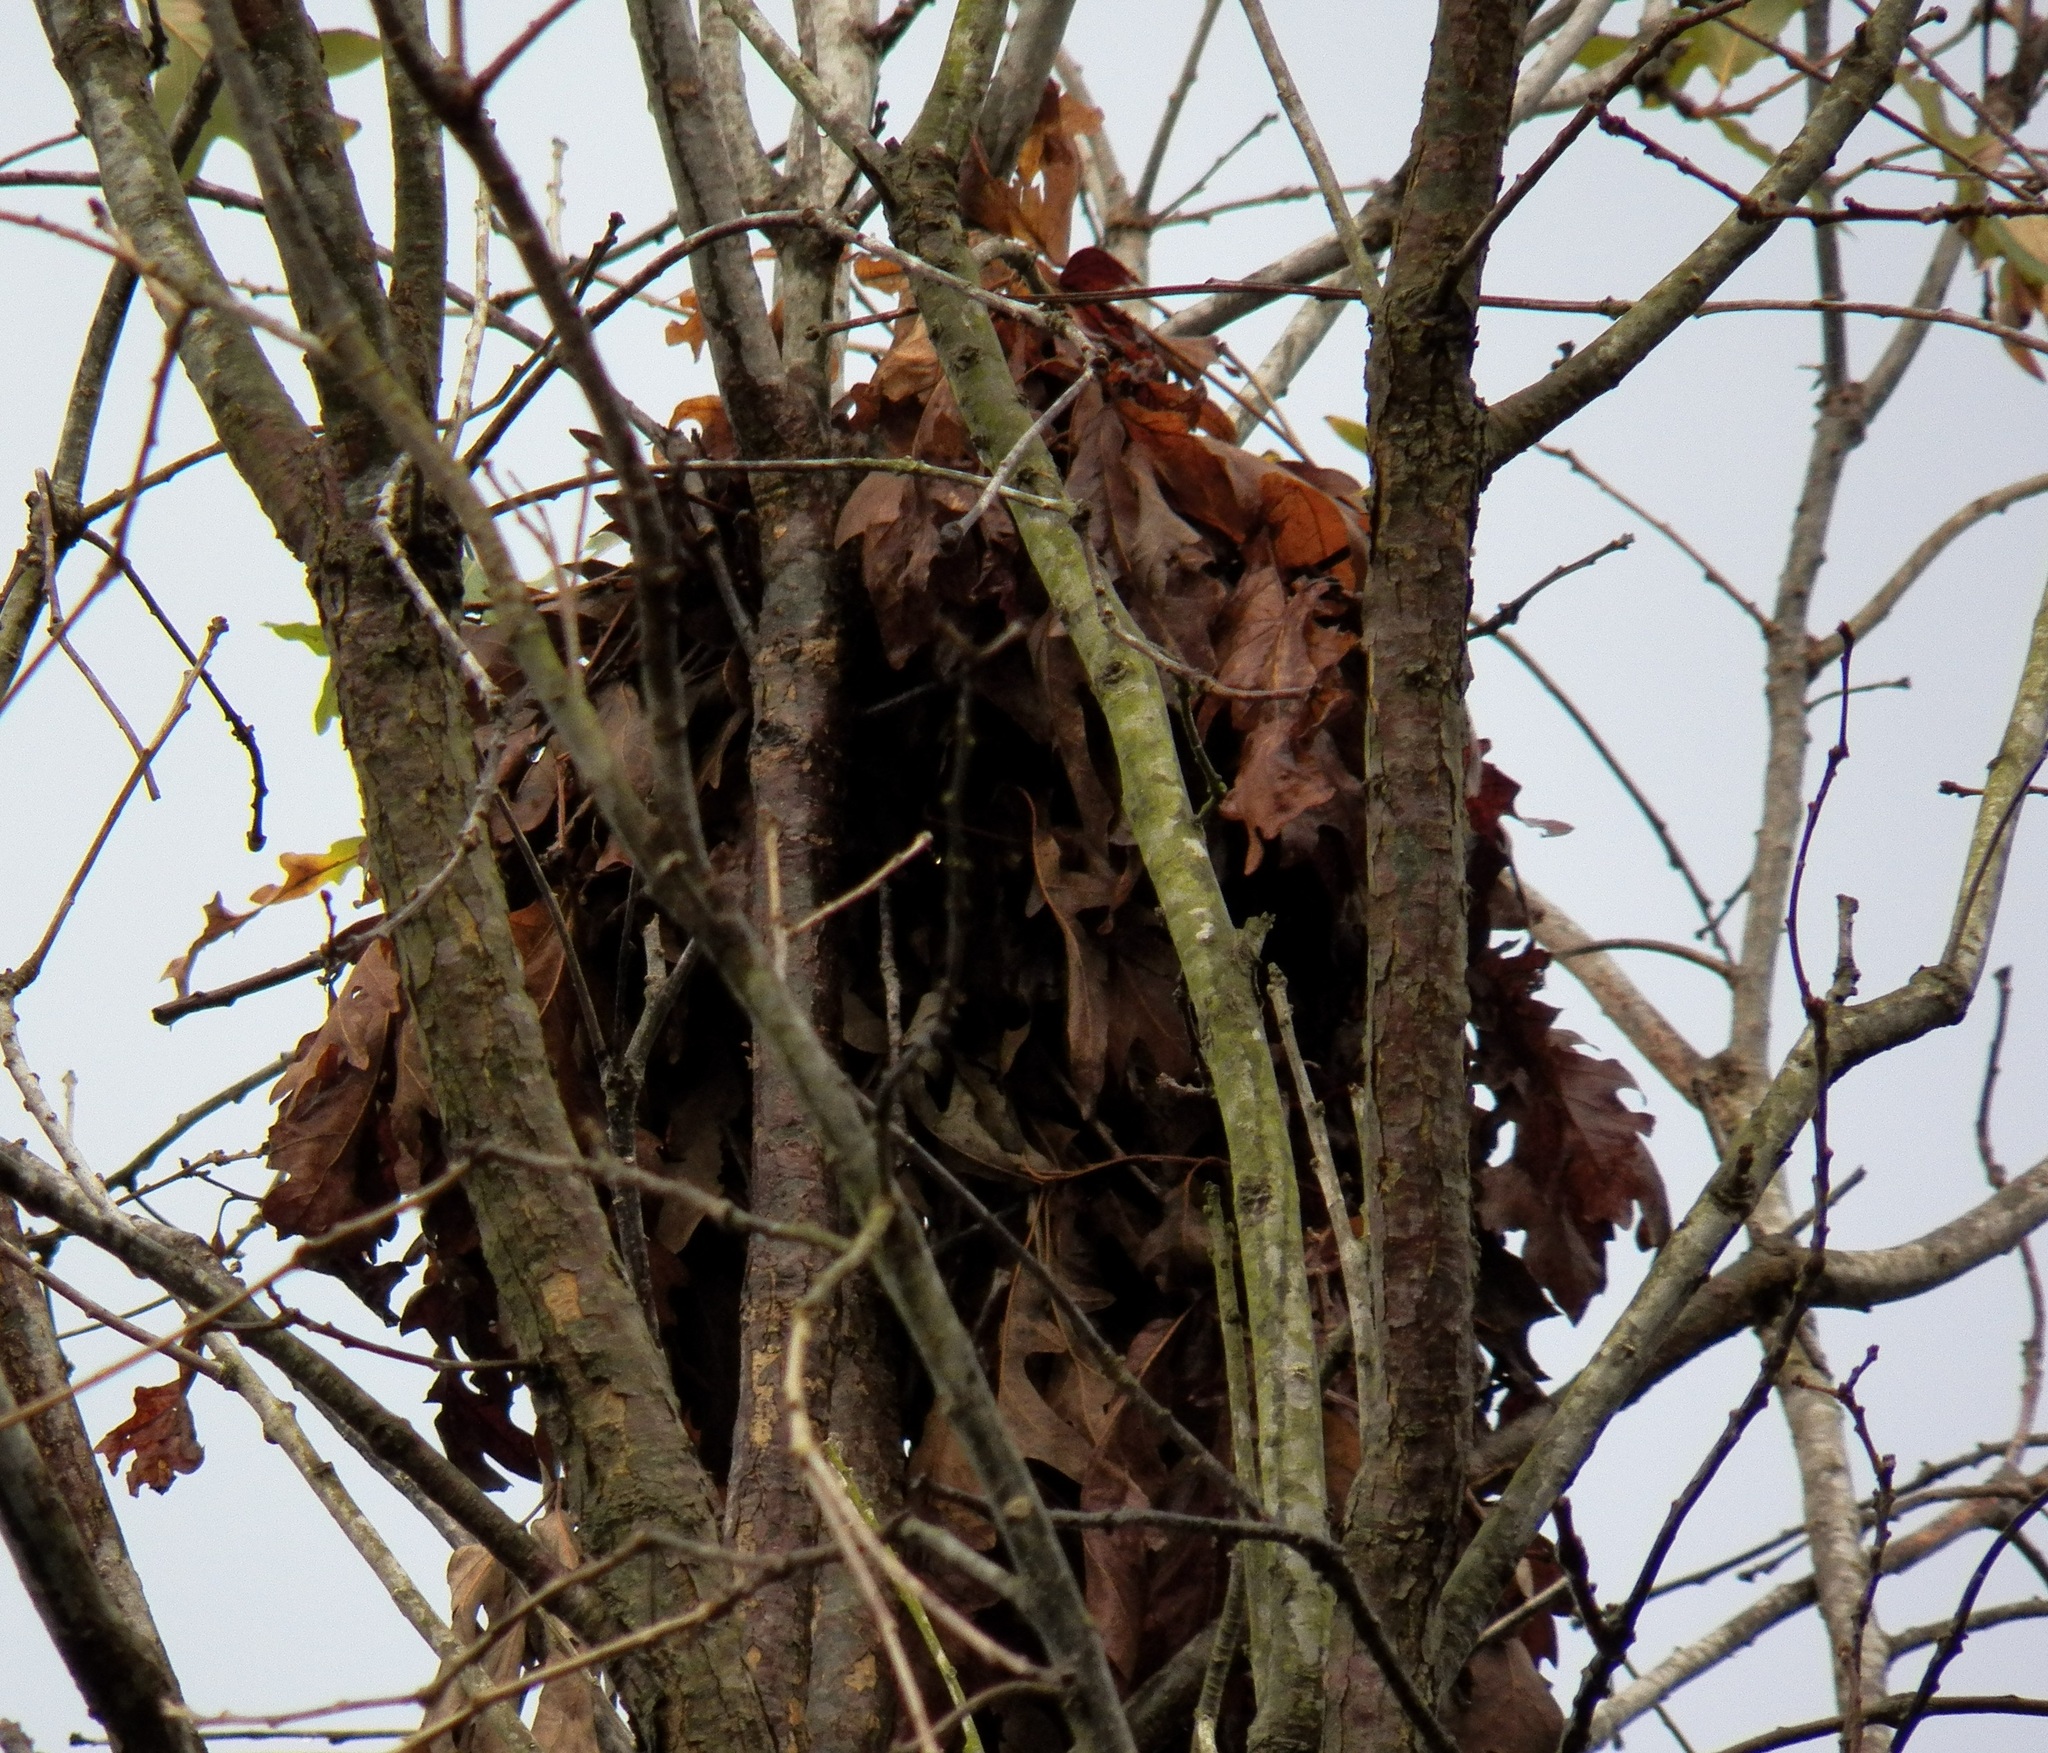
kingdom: Animalia
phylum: Chordata
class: Mammalia
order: Rodentia
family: Sciuridae
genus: Sciurus
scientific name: Sciurus carolinensis
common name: Eastern gray squirrel
